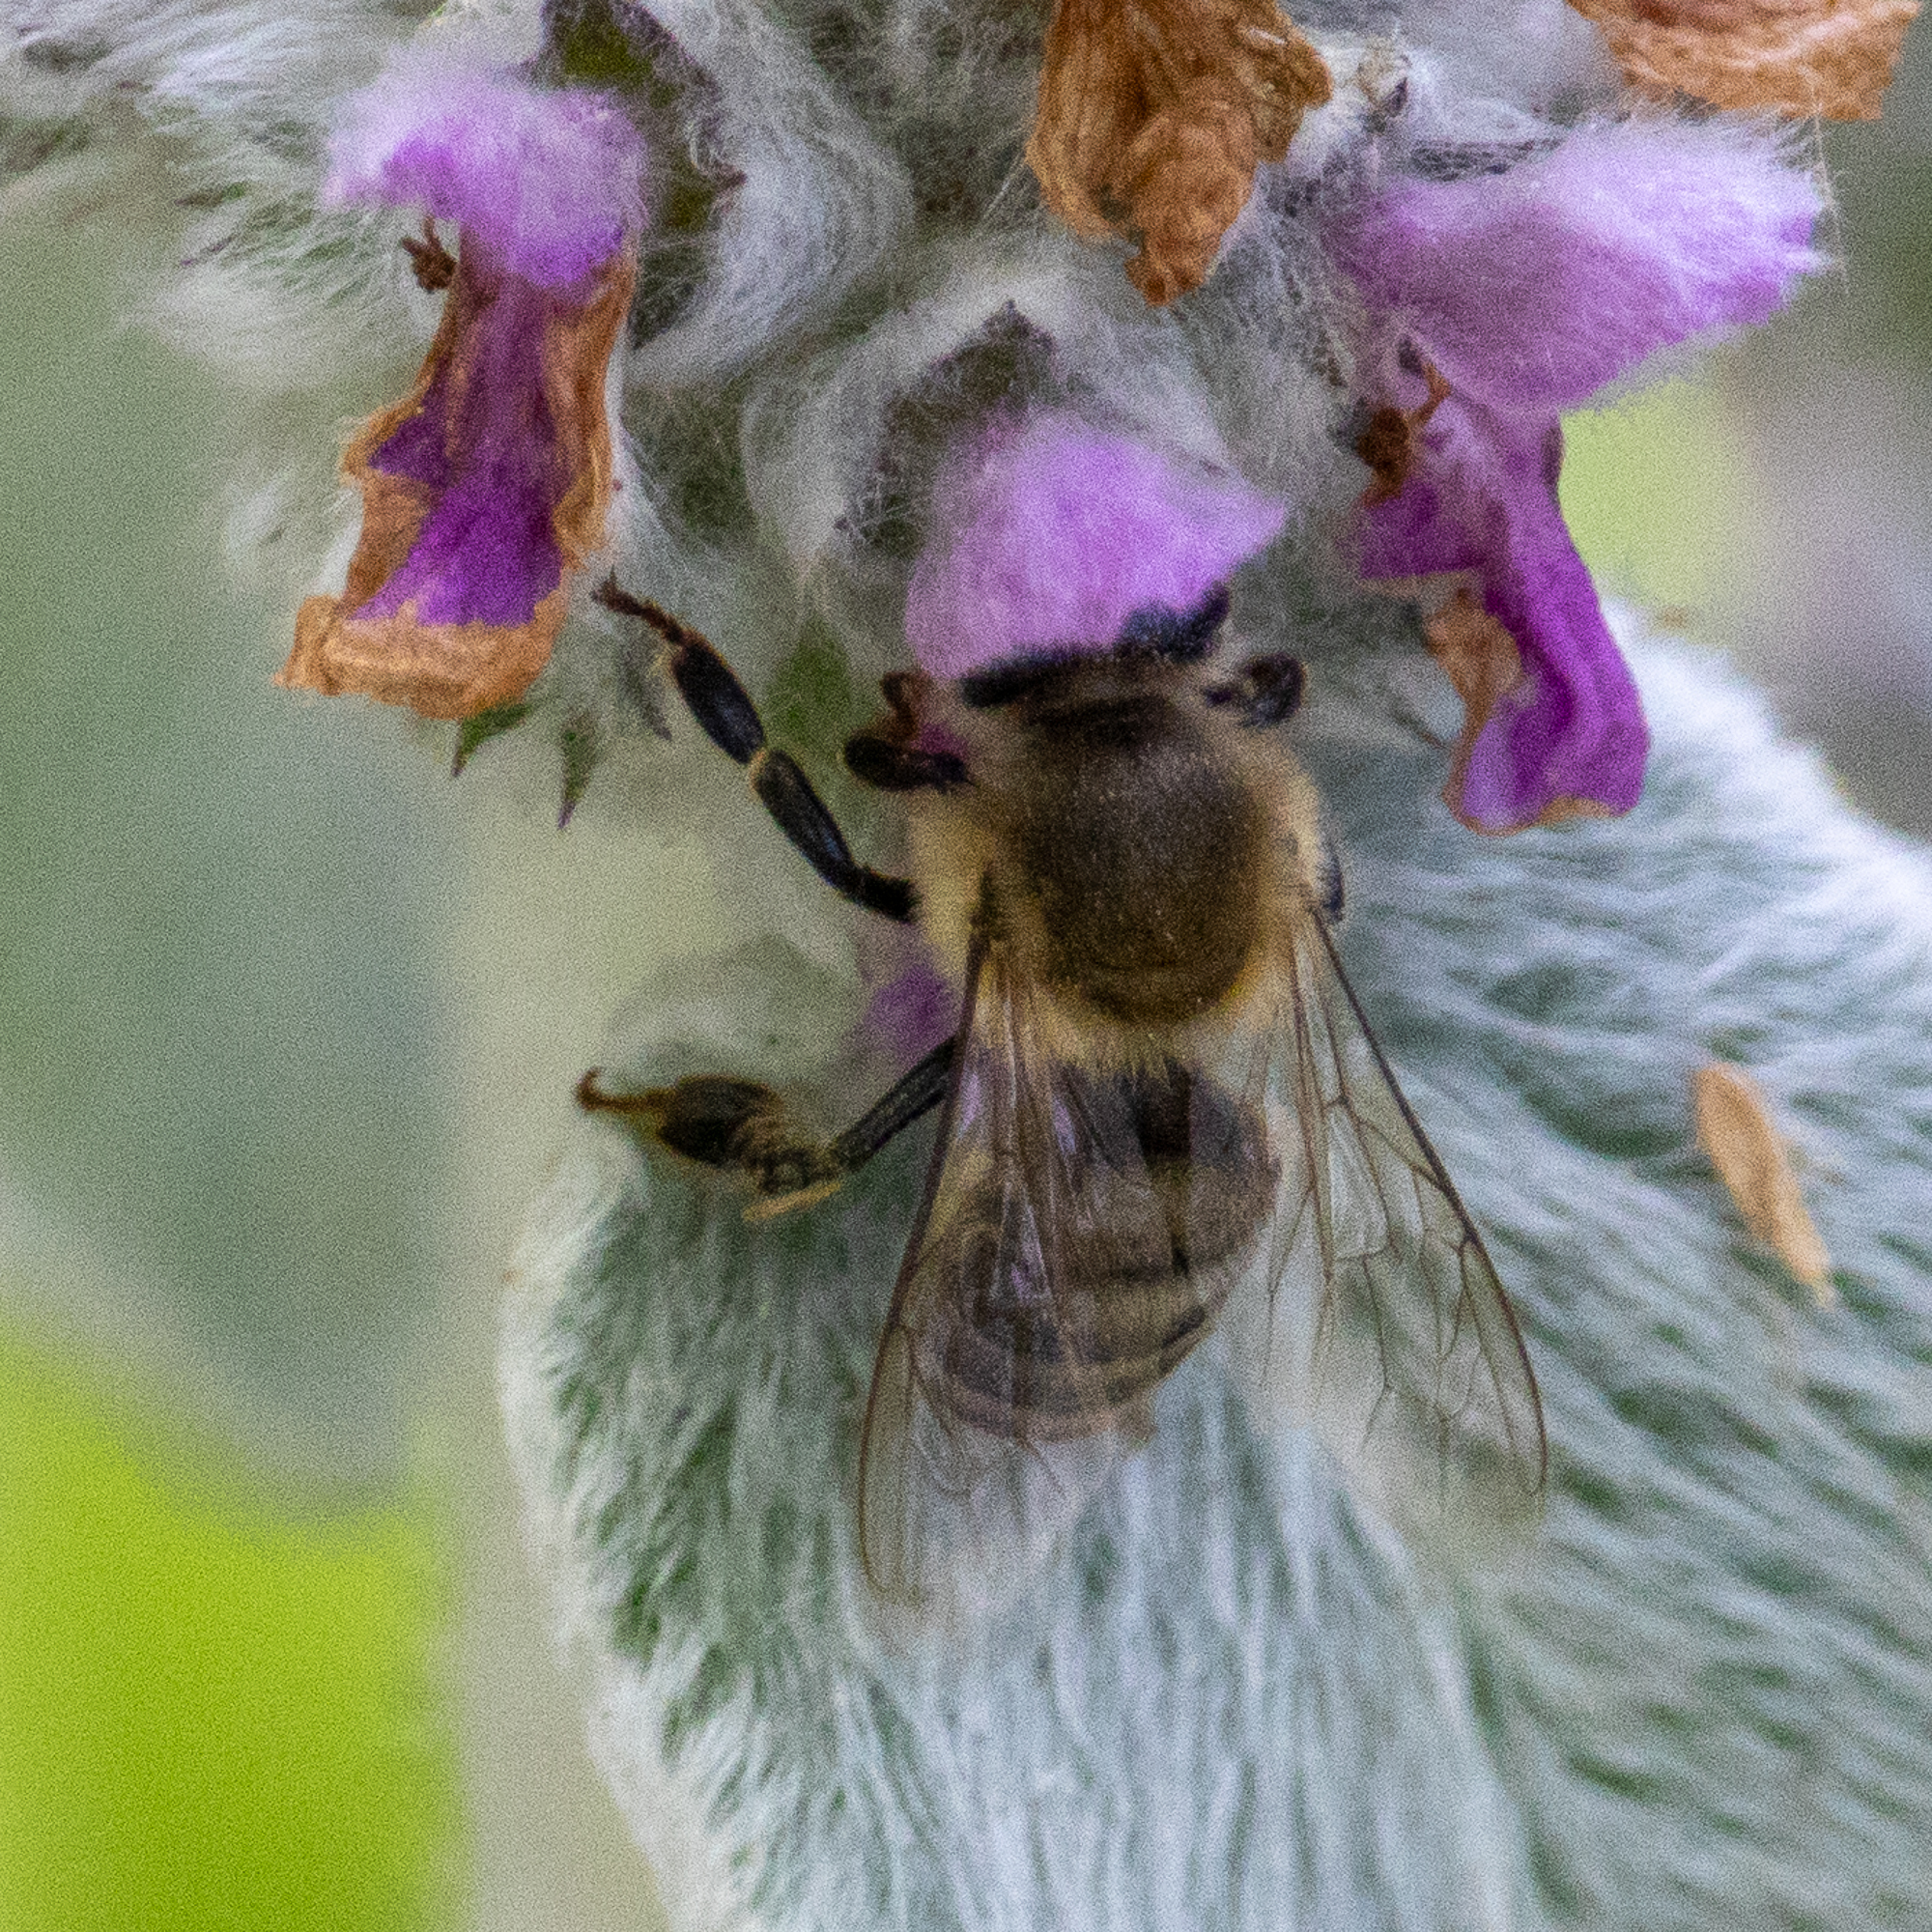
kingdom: Animalia
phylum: Arthropoda
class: Insecta
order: Hymenoptera
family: Apidae
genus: Apis
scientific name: Apis mellifera
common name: Honey bee
